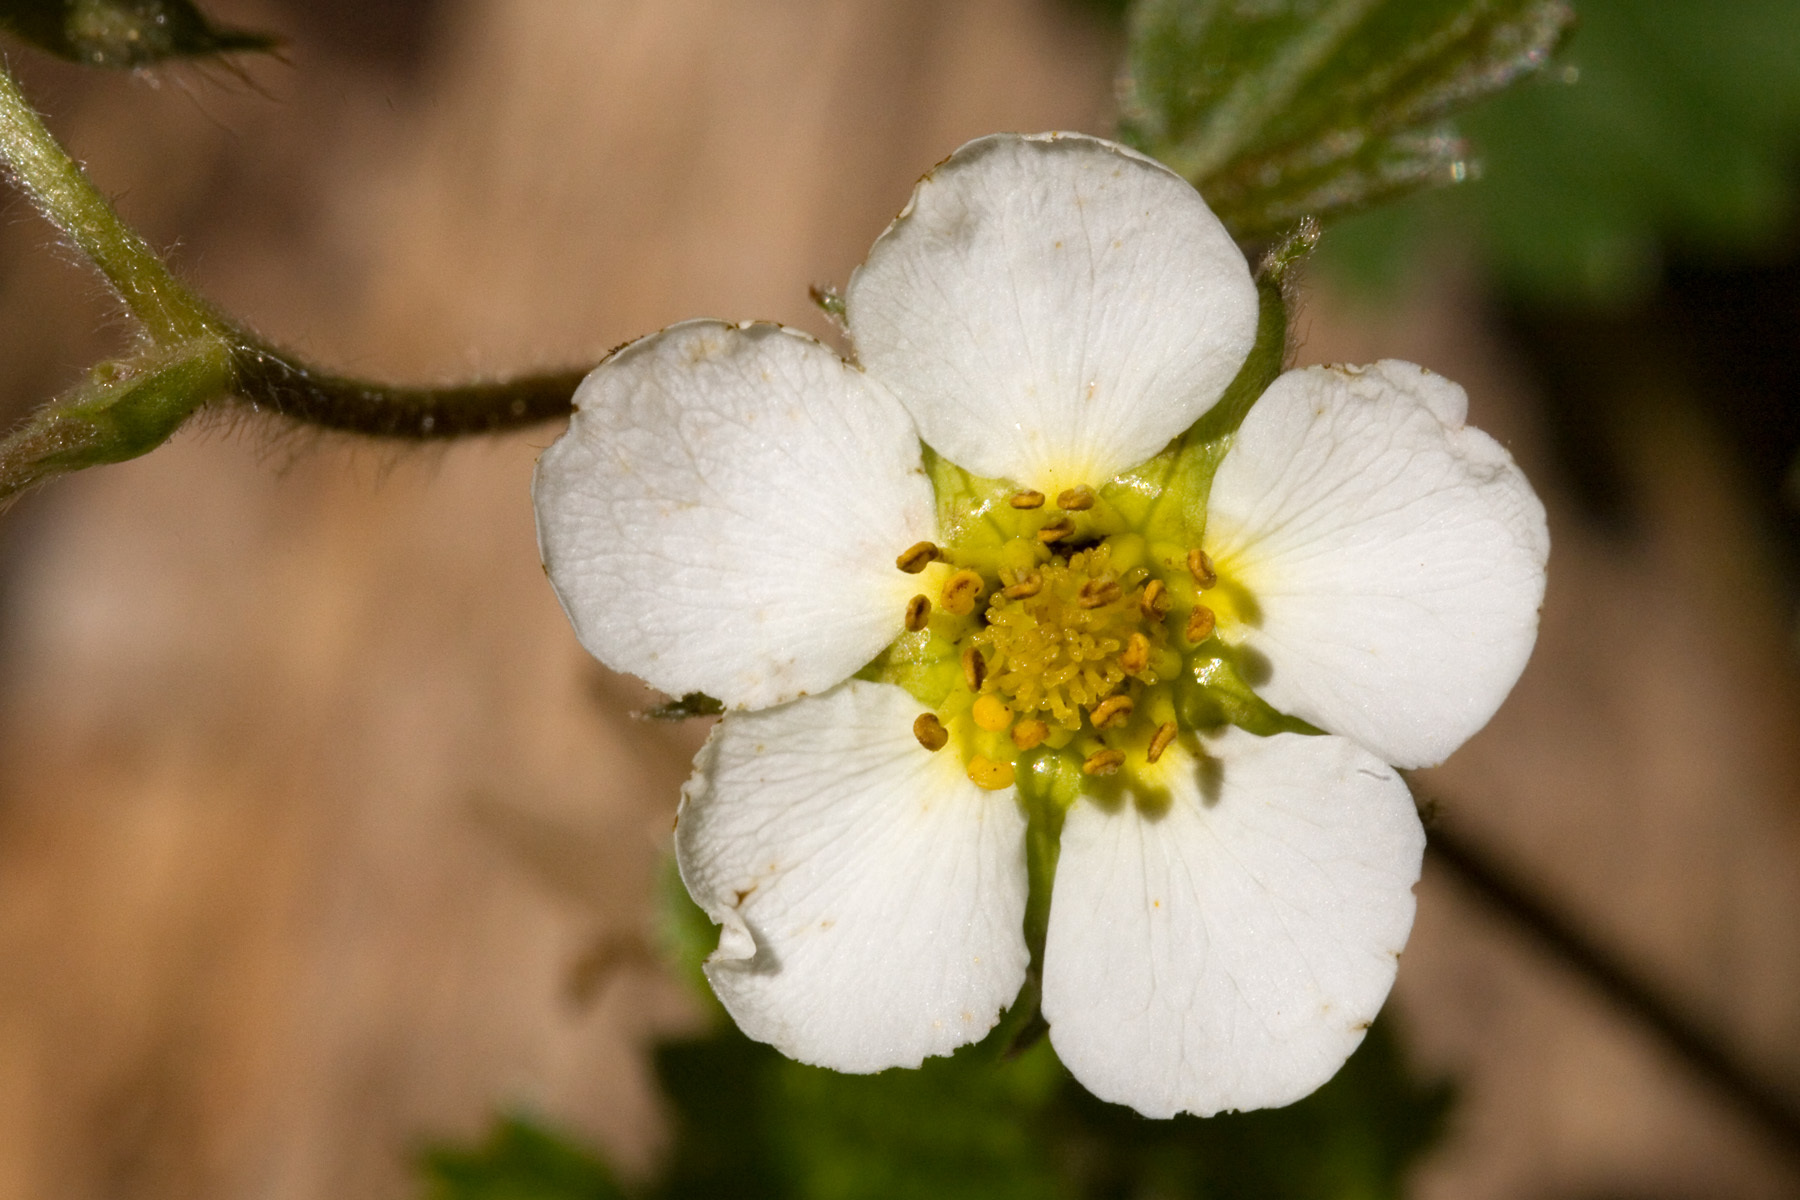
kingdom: Plantae
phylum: Tracheophyta
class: Magnoliopsida
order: Rosales
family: Rosaceae
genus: Fragaria
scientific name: Fragaria vesca
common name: Wild strawberry
